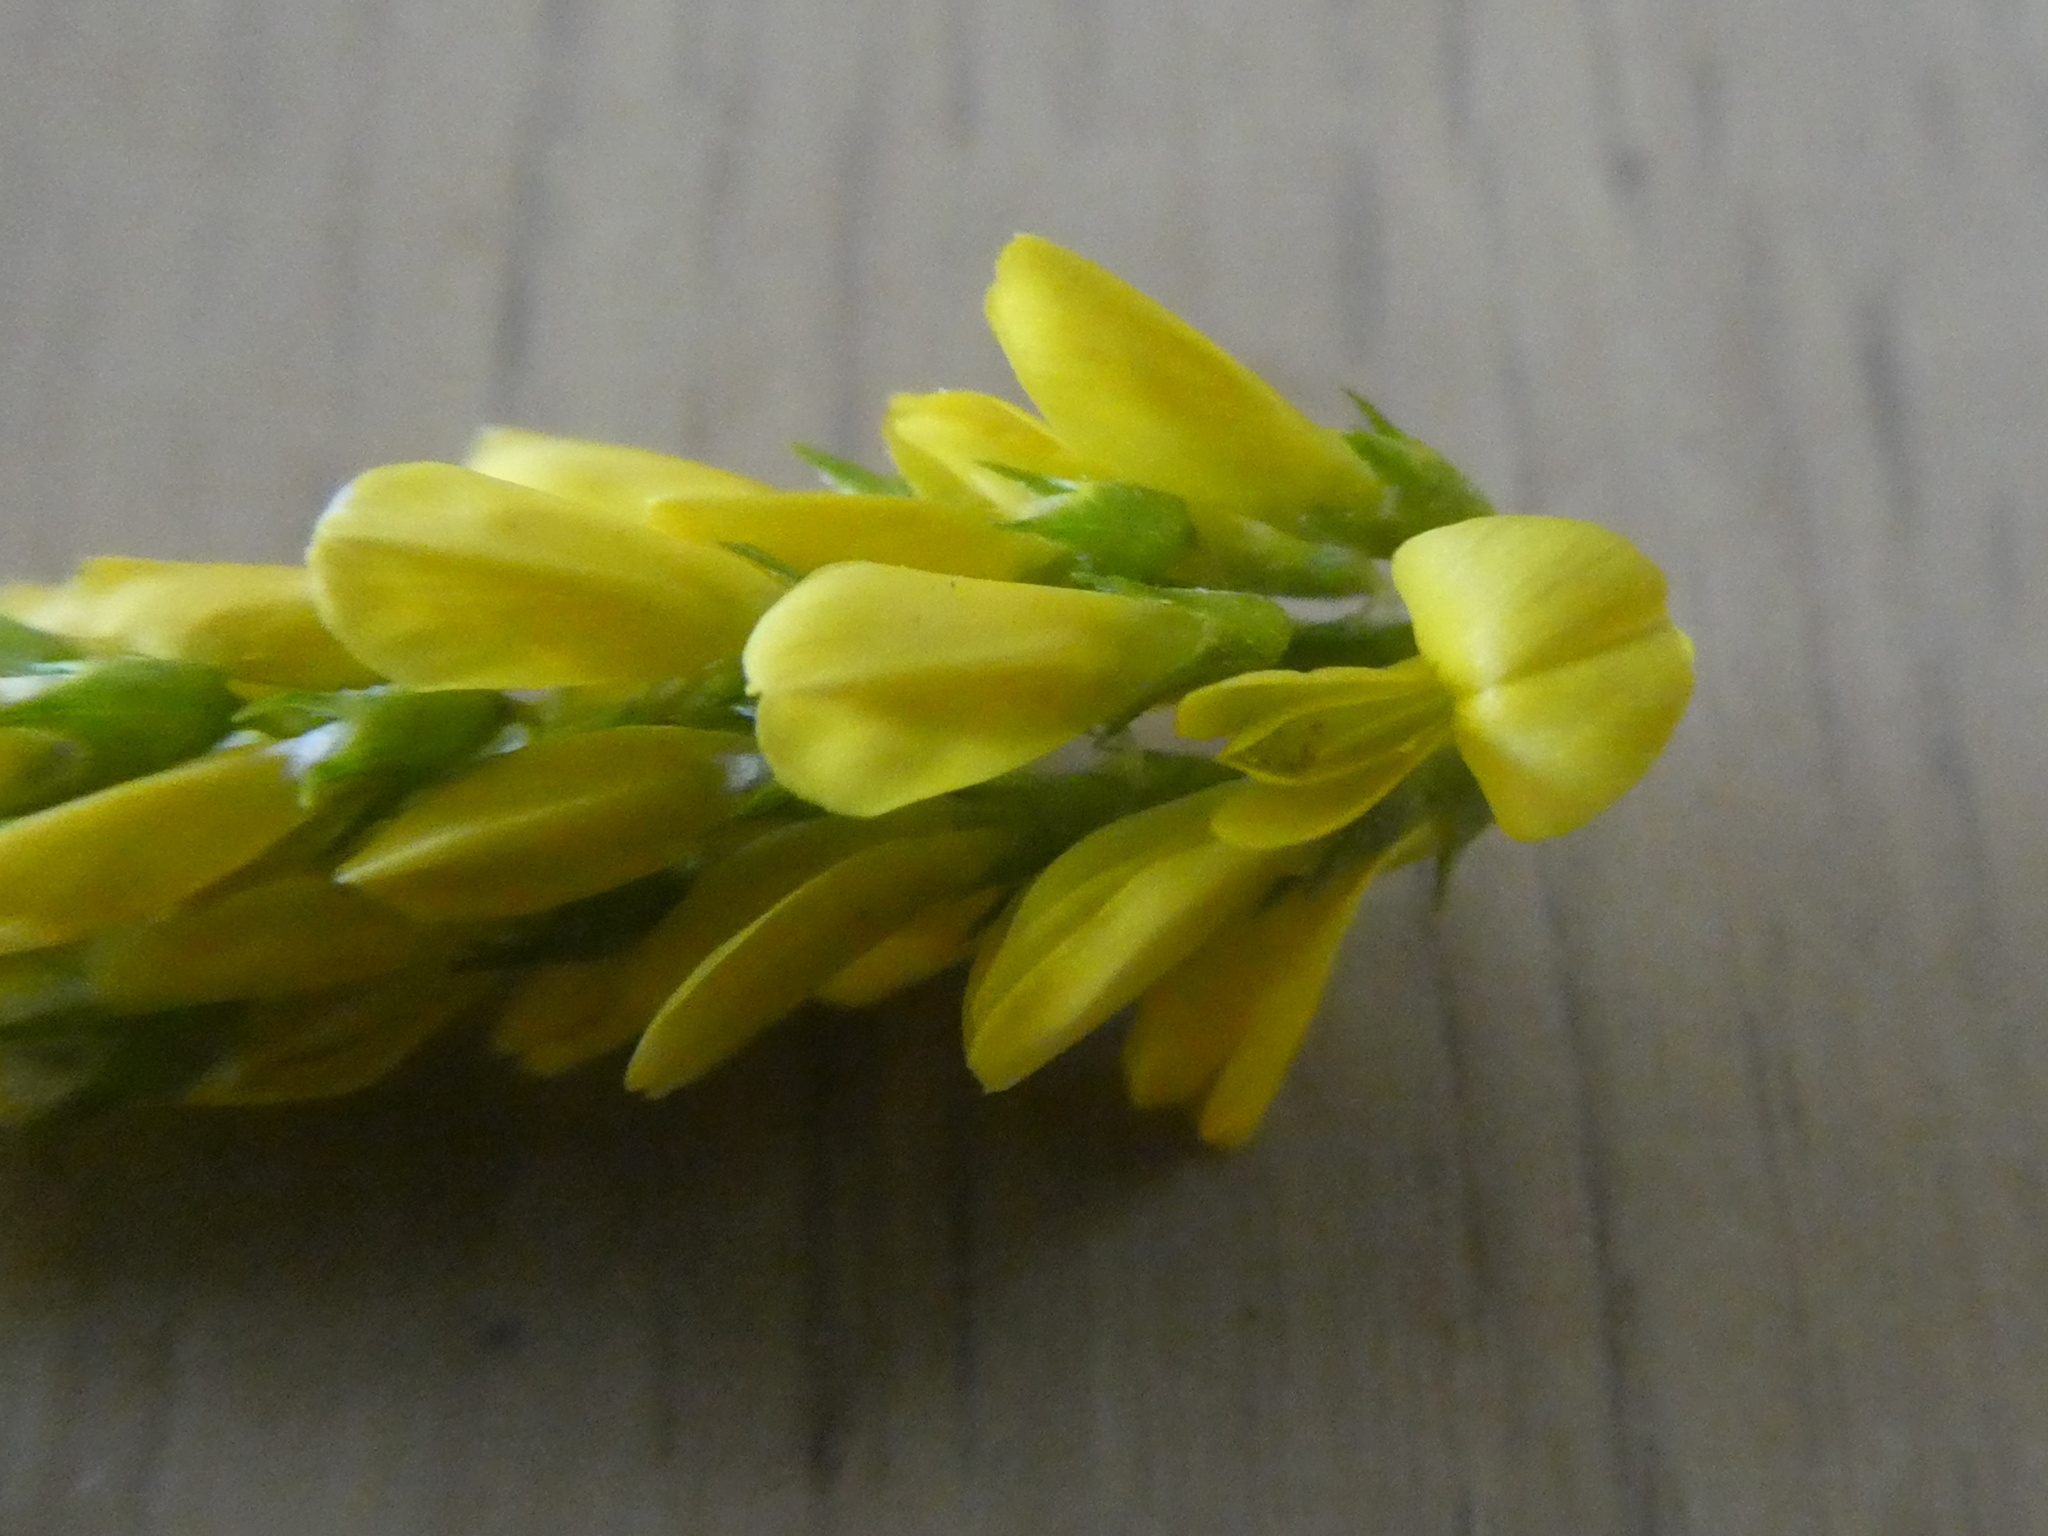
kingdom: Plantae
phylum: Tracheophyta
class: Magnoliopsida
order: Fabales
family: Fabaceae
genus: Melilotus
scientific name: Melilotus officinalis
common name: Sweetclover
